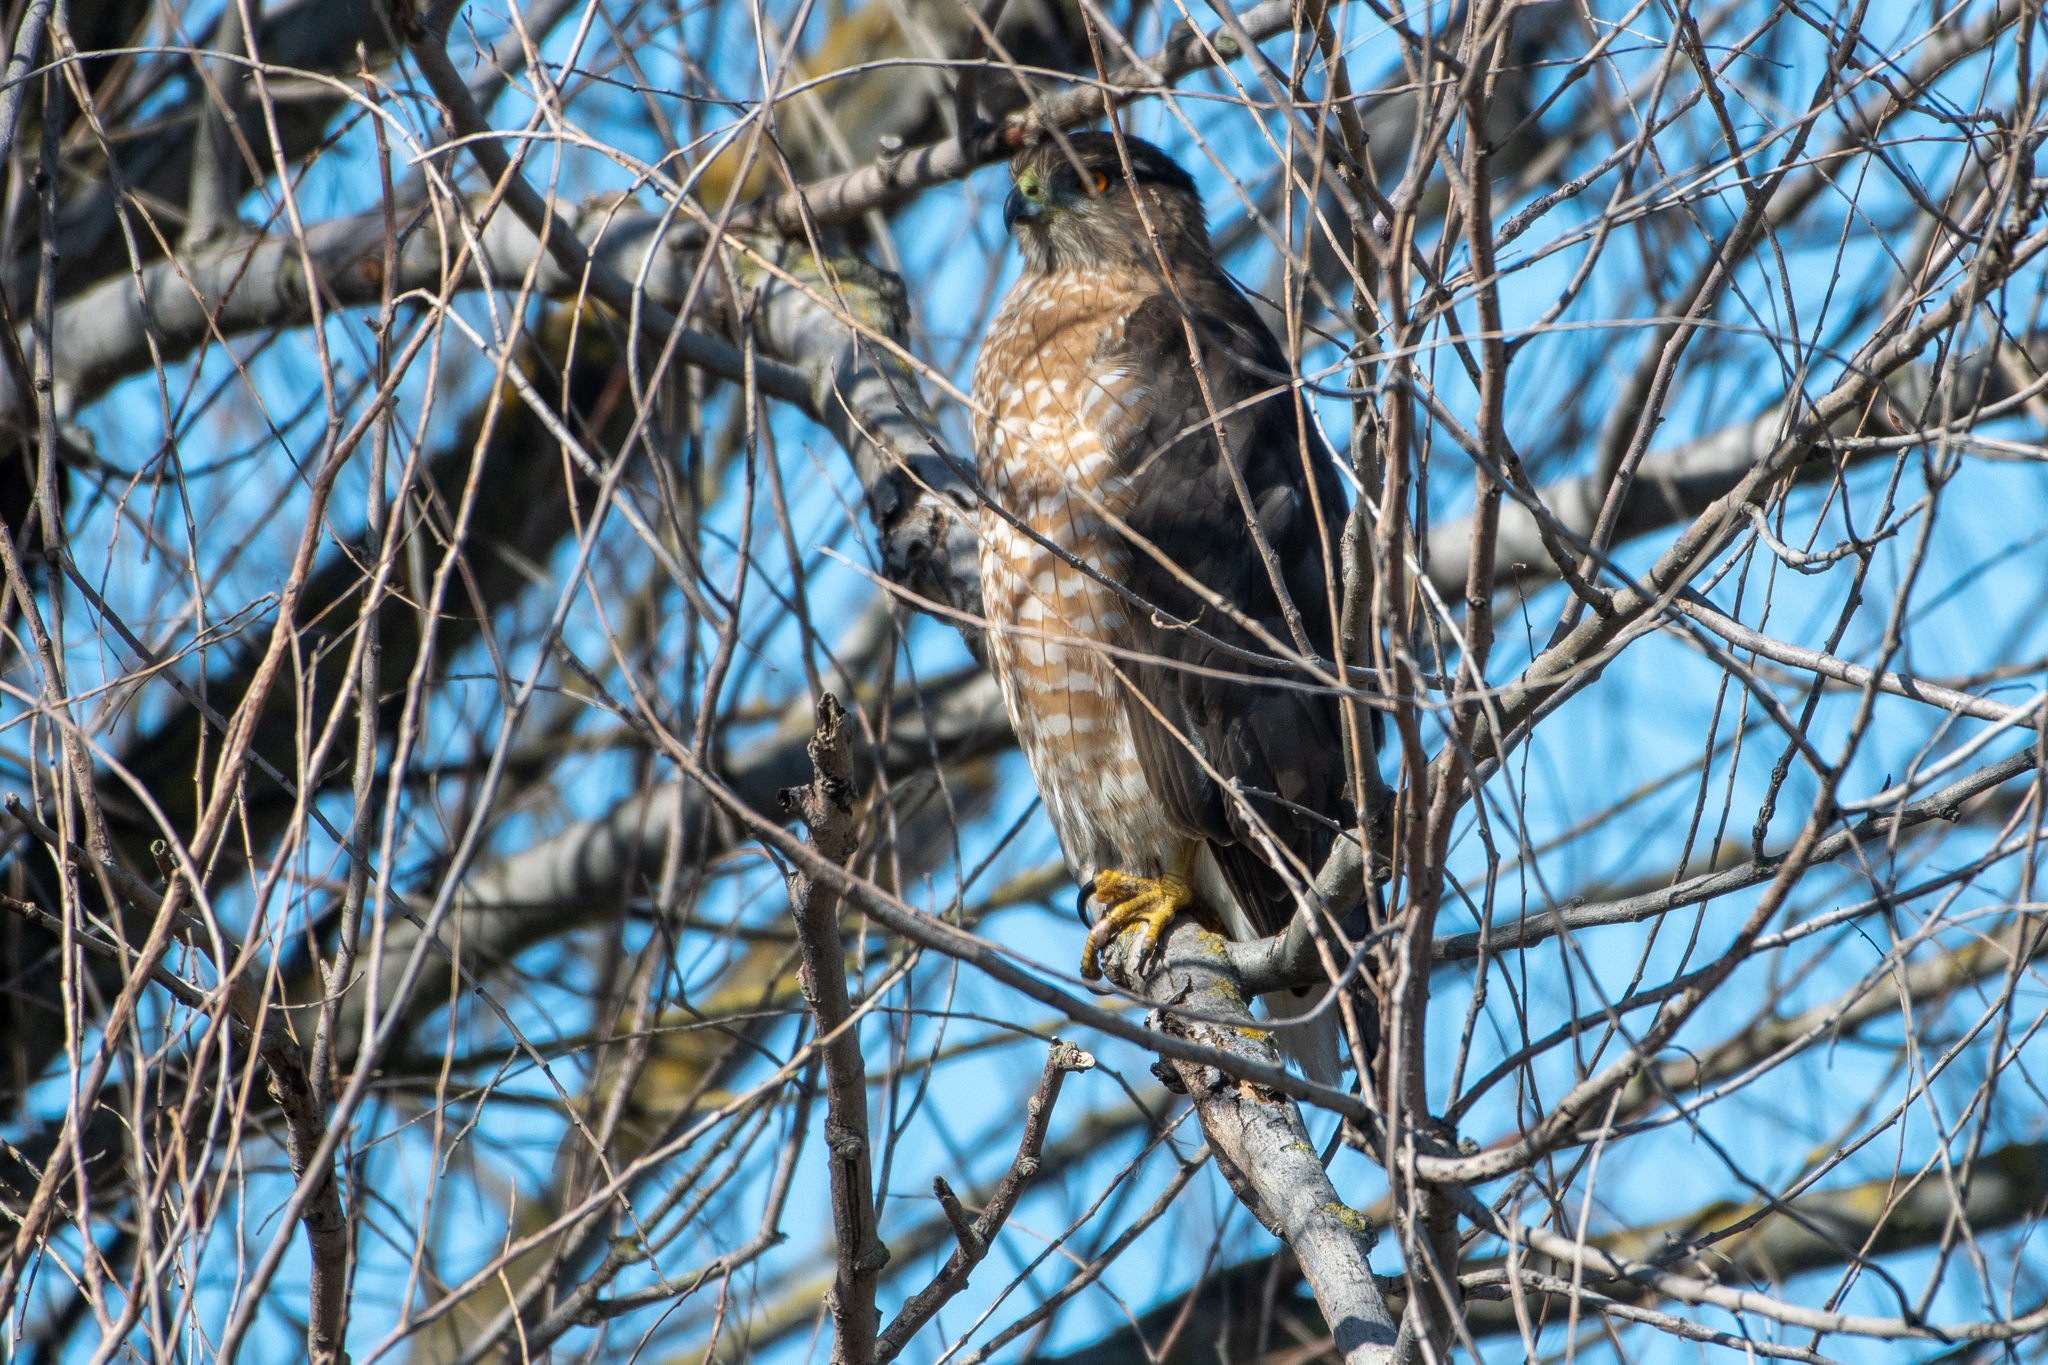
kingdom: Animalia
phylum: Chordata
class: Aves
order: Accipitriformes
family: Accipitridae
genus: Accipiter
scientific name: Accipiter cooperii
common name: Cooper's hawk
